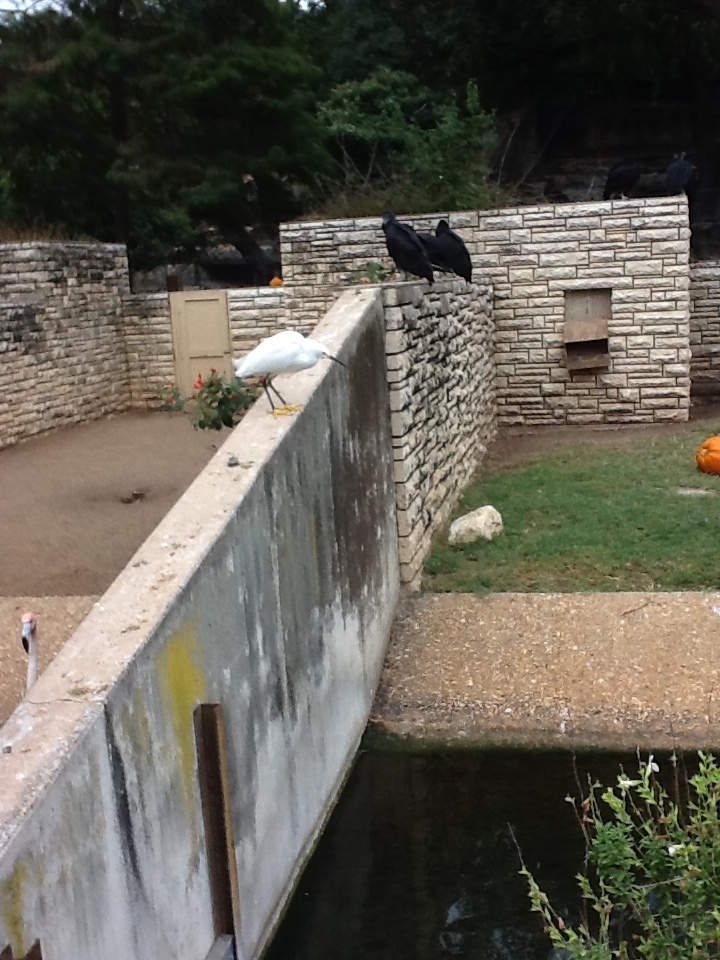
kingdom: Animalia
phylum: Chordata
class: Aves
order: Pelecaniformes
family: Ardeidae
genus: Egretta
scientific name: Egretta thula
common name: Snowy egret
